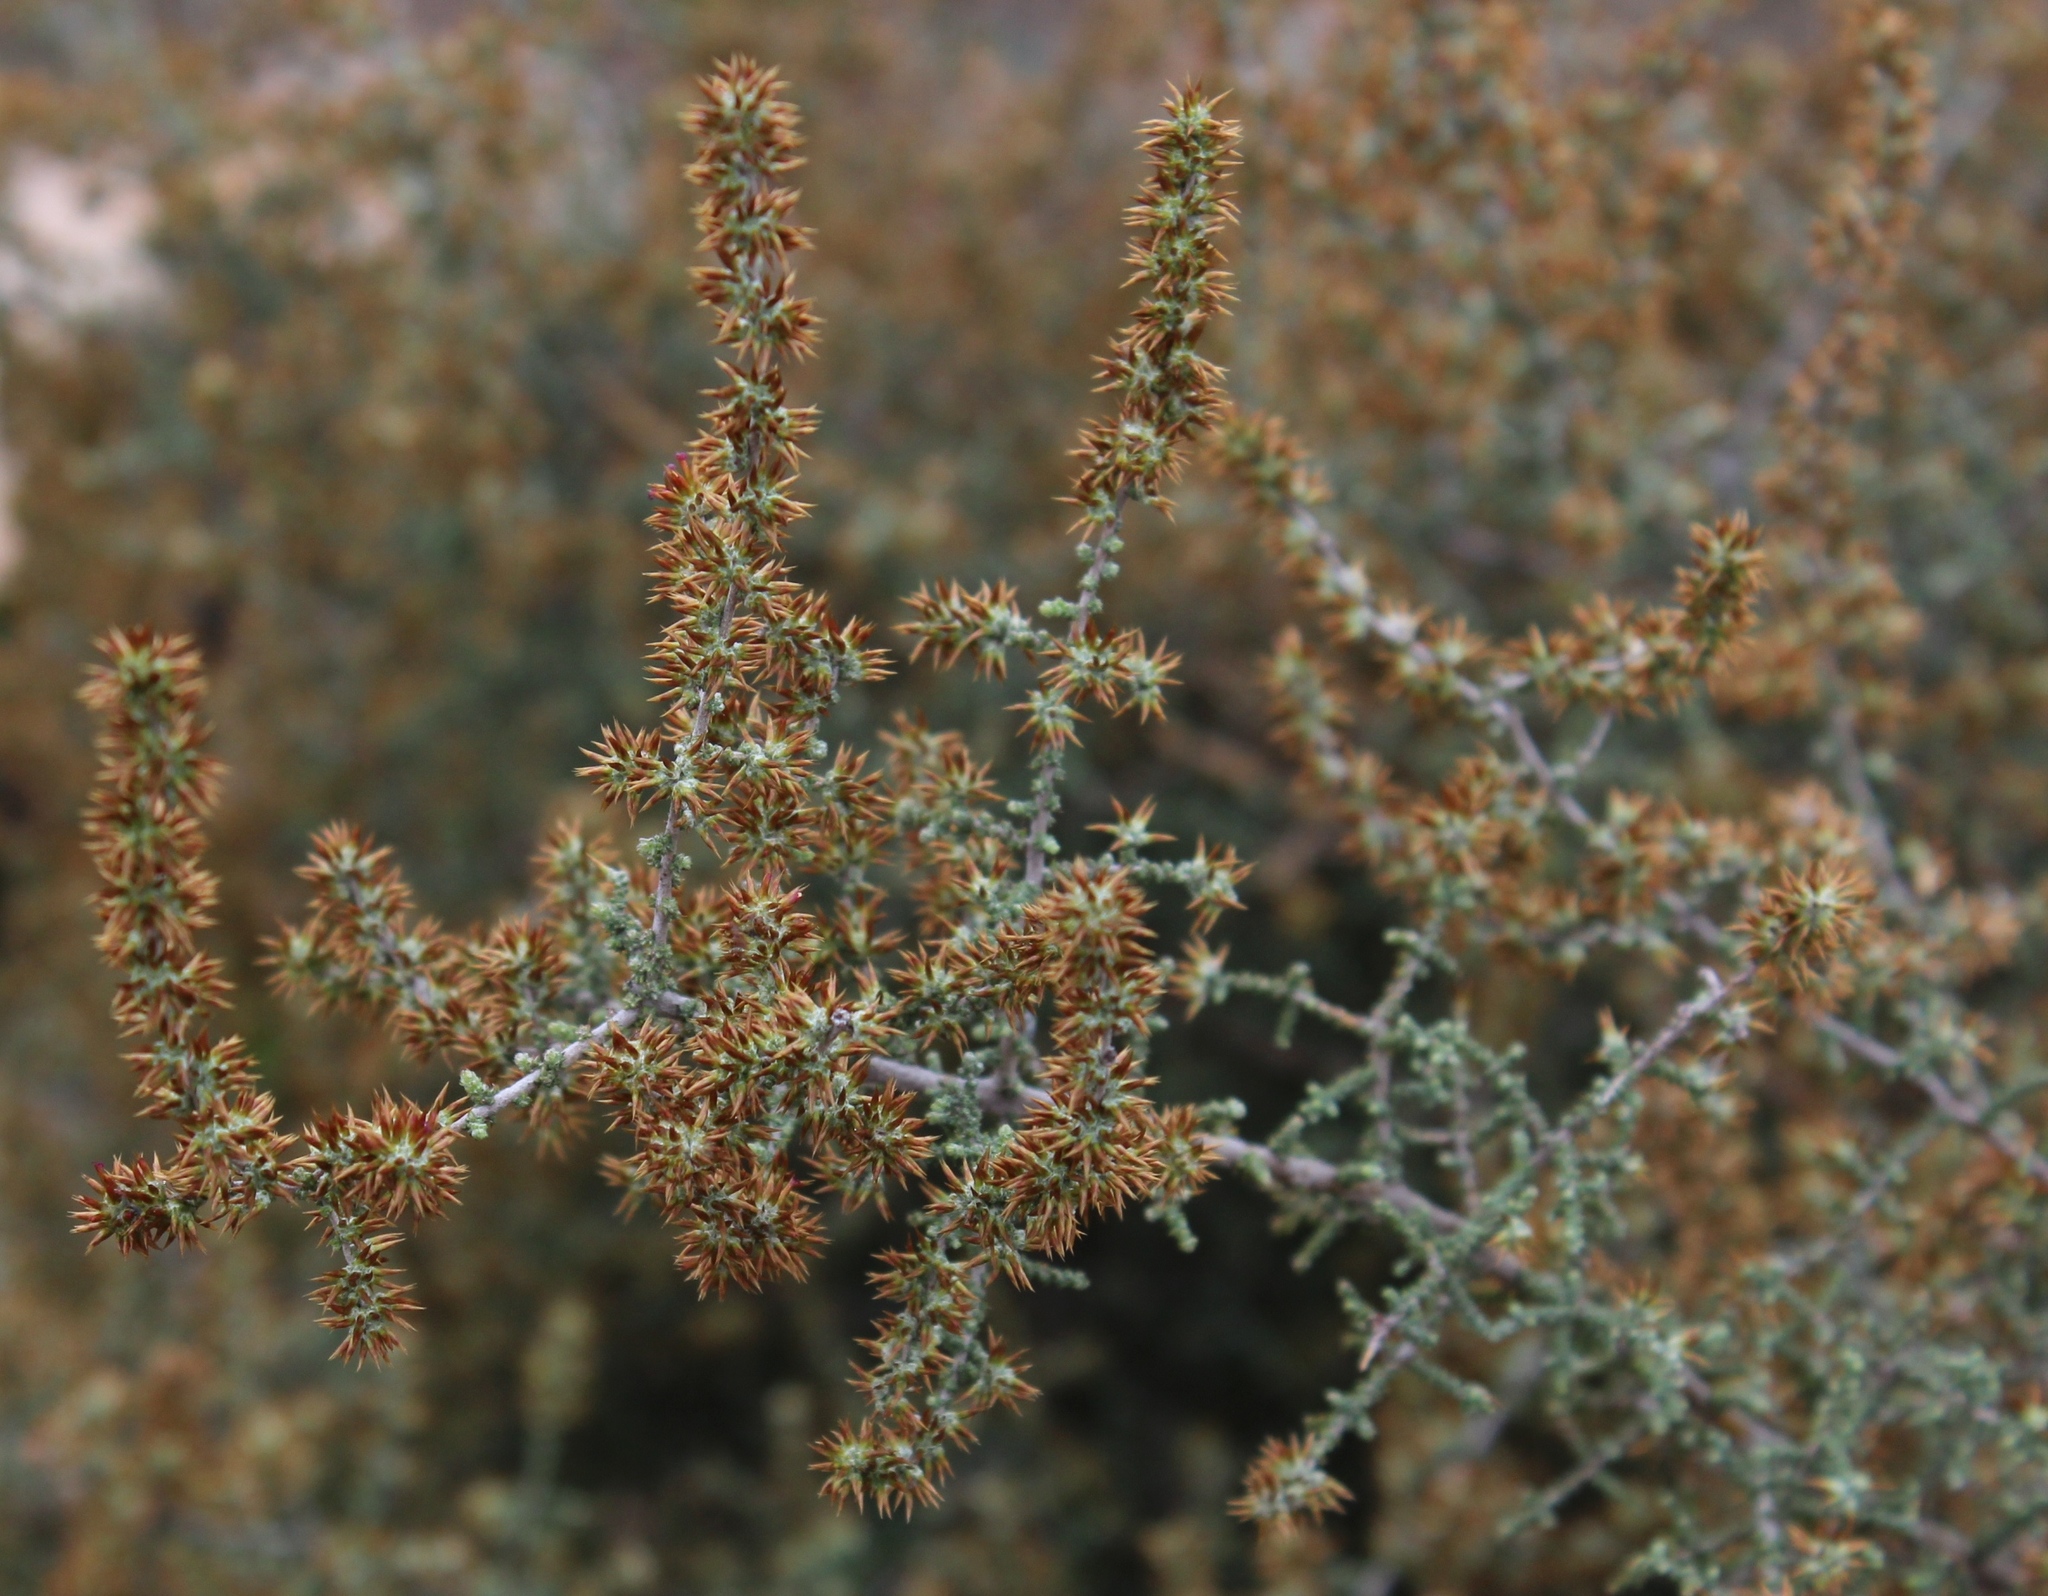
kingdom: Plantae
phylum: Tracheophyta
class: Magnoliopsida
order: Asterales
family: Asteraceae
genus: Seriphium
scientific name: Seriphium plumosum
